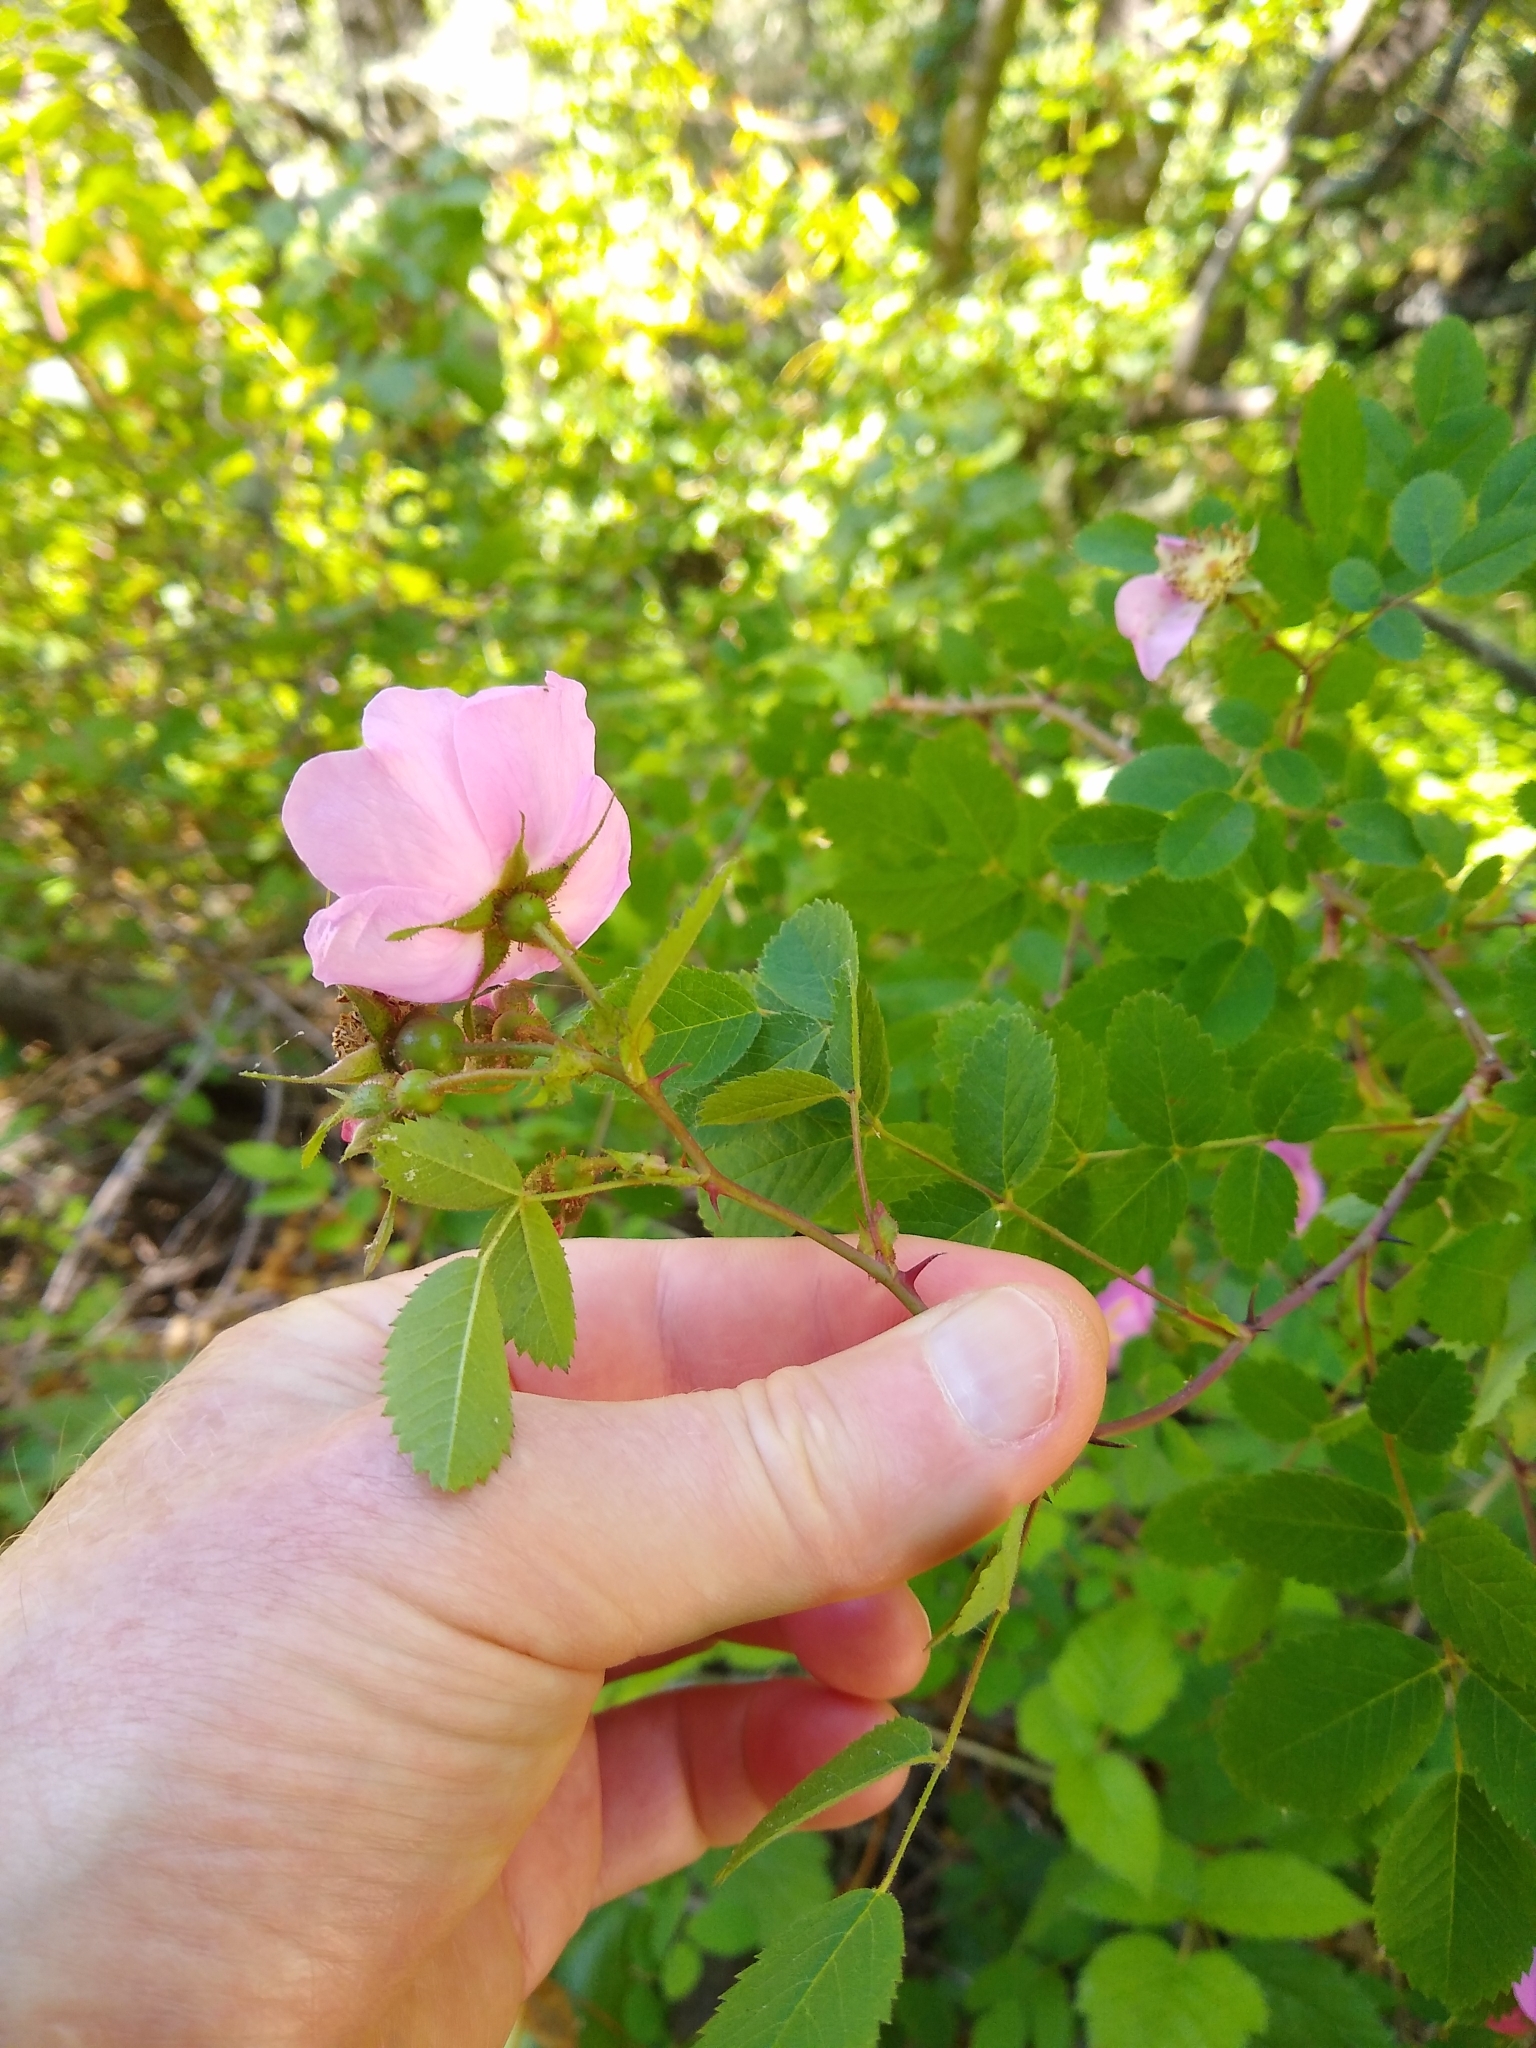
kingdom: Plantae
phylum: Tracheophyta
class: Magnoliopsida
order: Rosales
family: Rosaceae
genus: Rosa
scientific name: Rosa californica
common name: California rose
